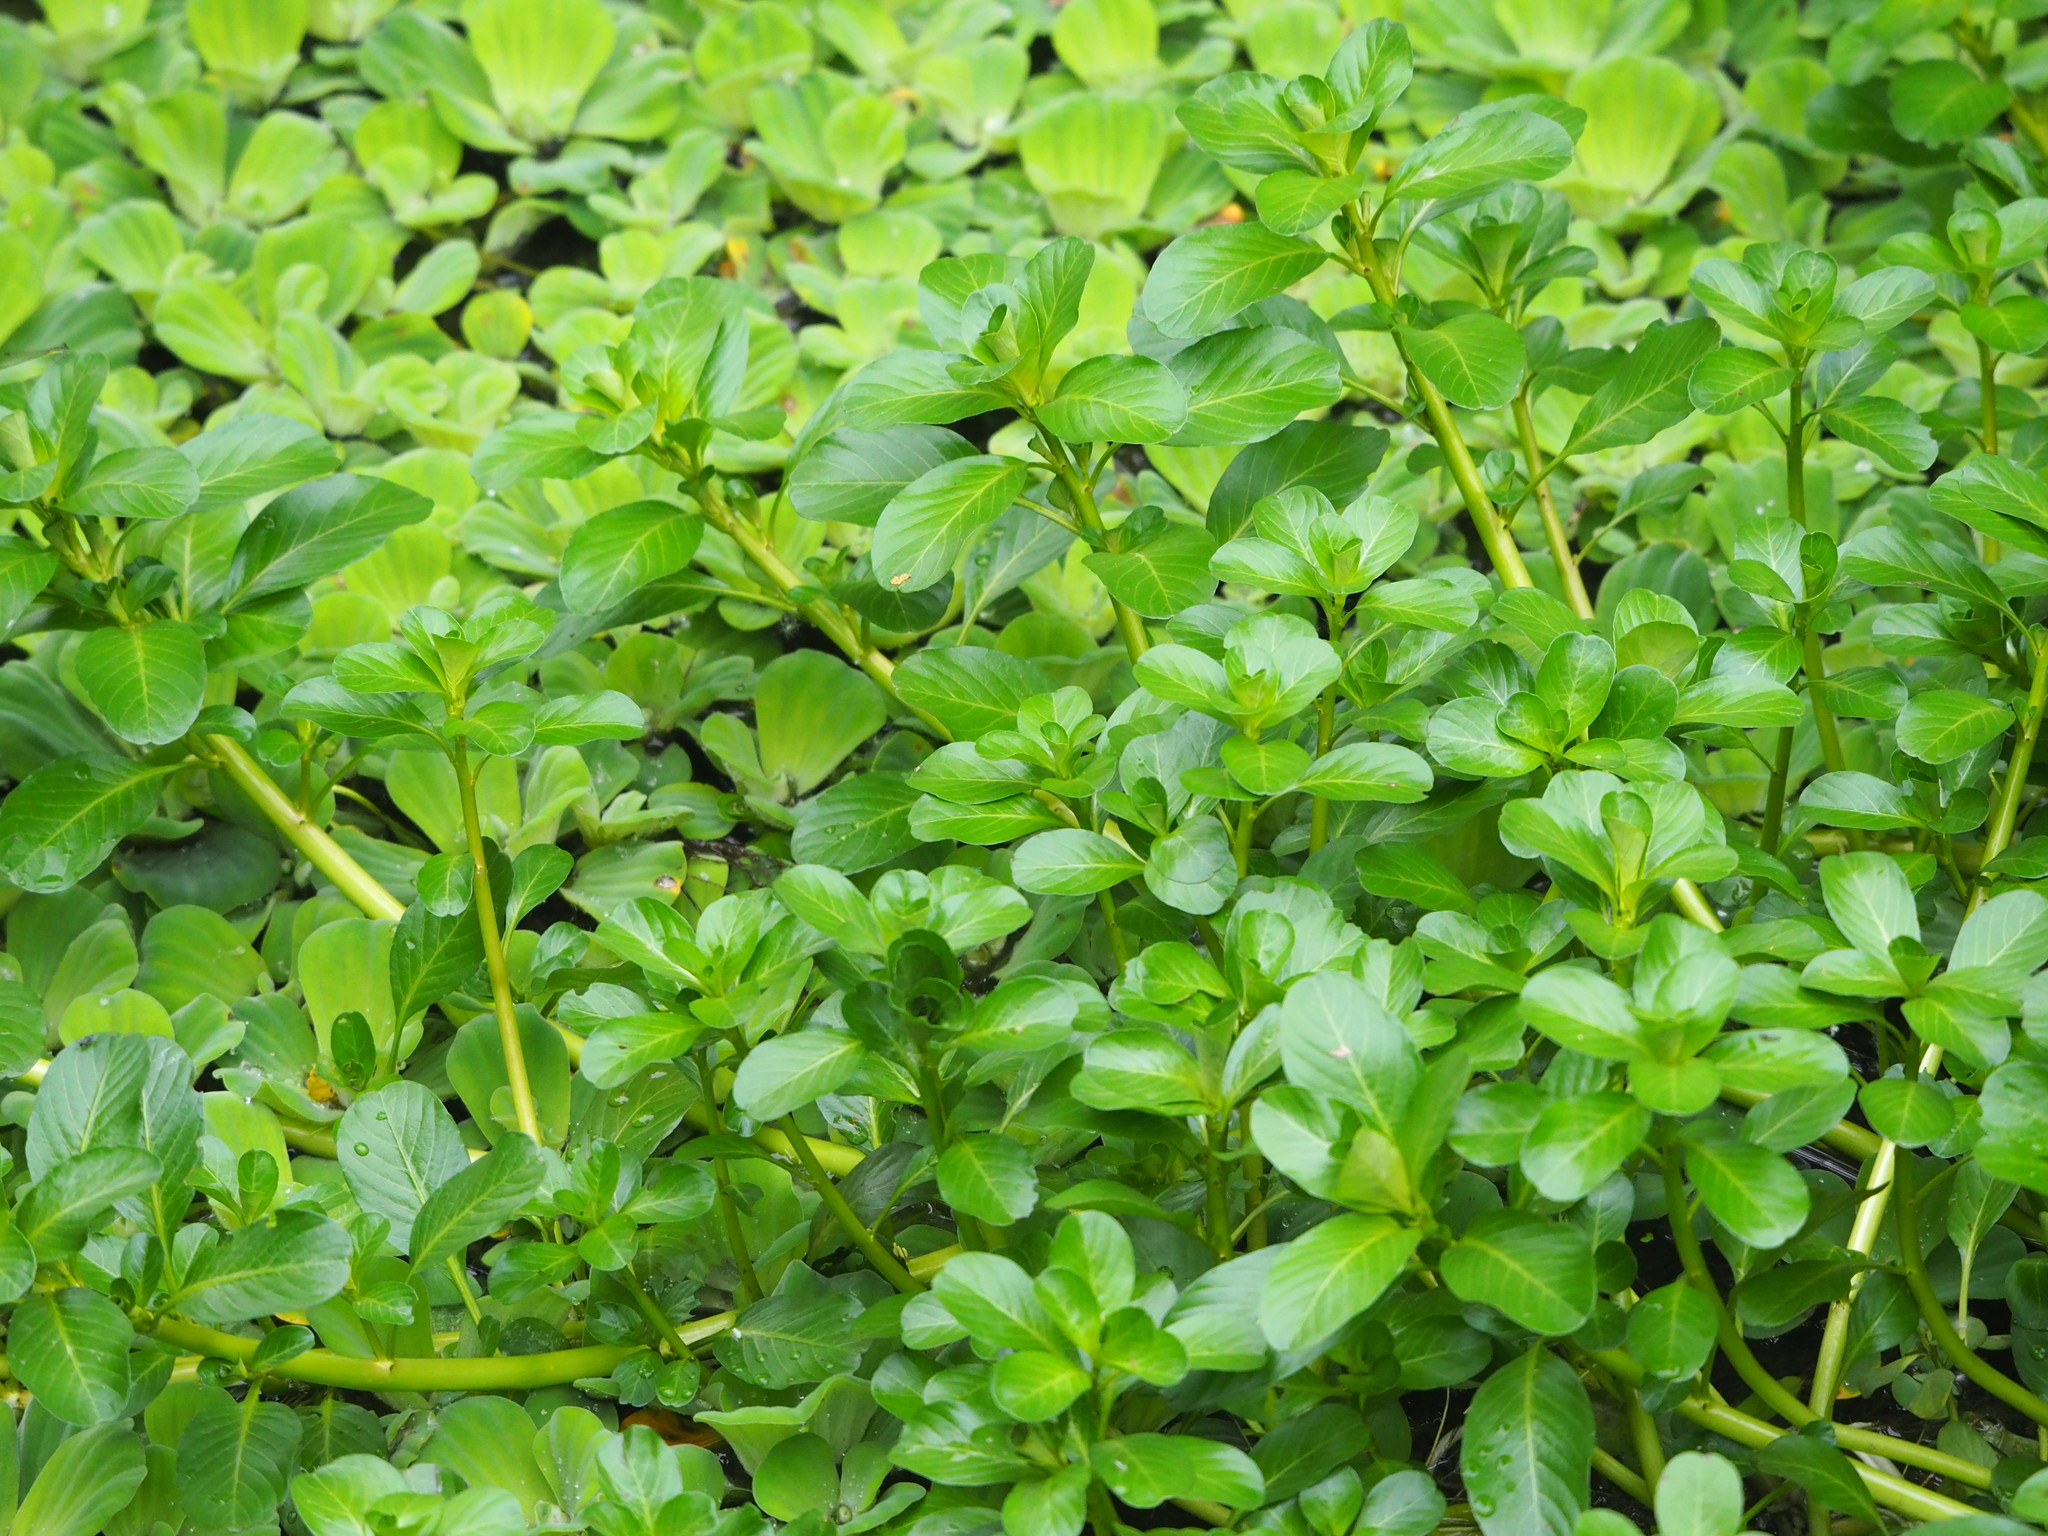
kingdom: Plantae
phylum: Tracheophyta
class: Magnoliopsida
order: Myrtales
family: Onagraceae
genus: Ludwigia
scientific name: Ludwigia taiwanensis
